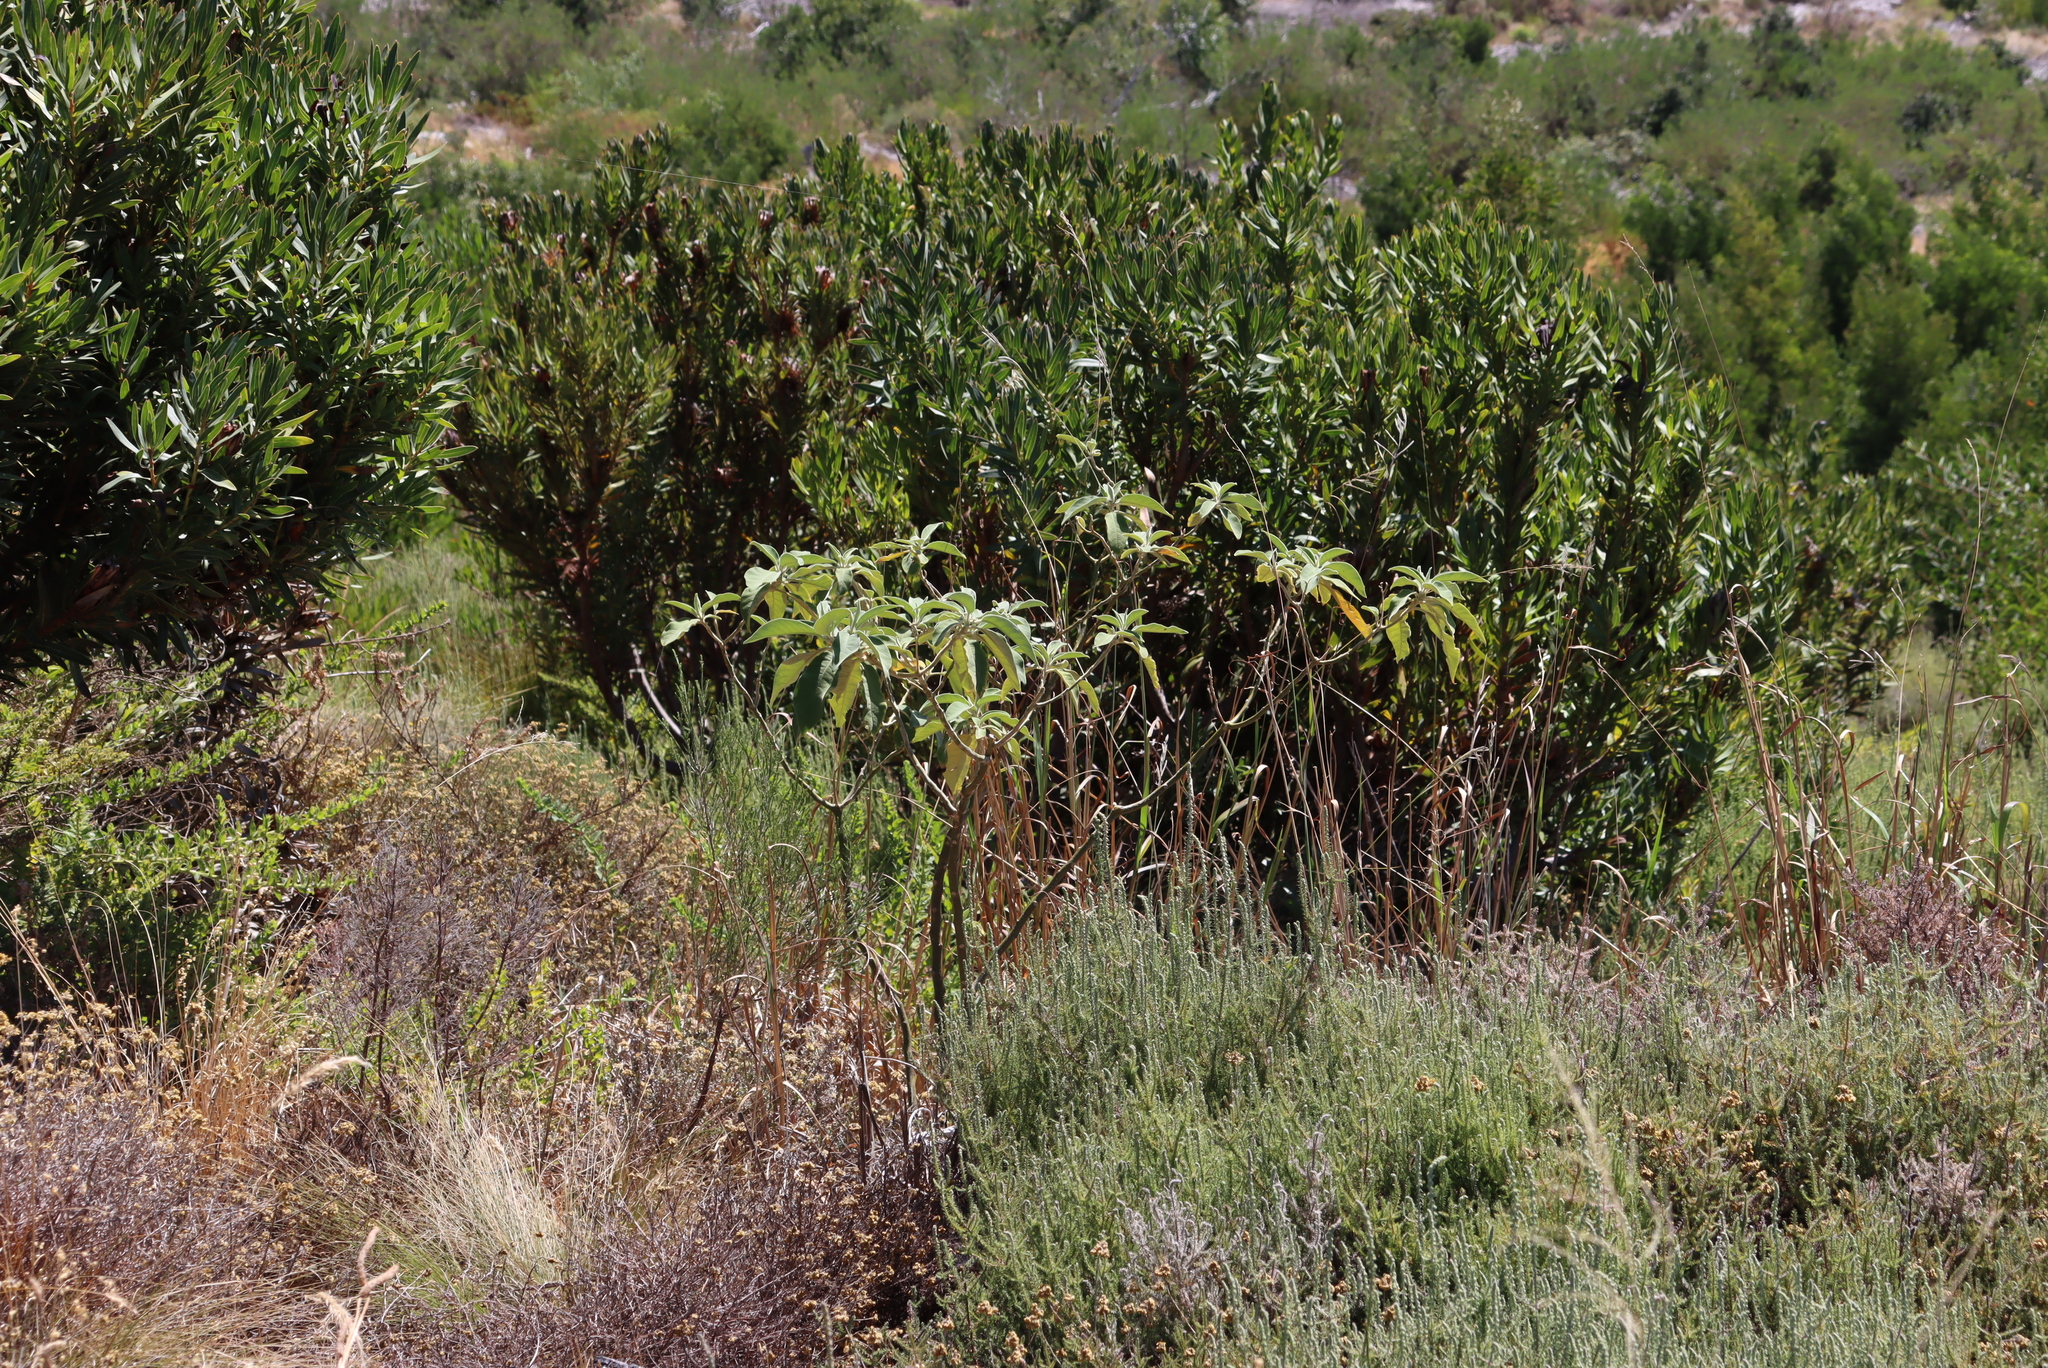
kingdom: Plantae
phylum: Tracheophyta
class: Magnoliopsida
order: Solanales
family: Solanaceae
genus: Solanum
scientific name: Solanum mauritianum
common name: Earleaf nightshade
